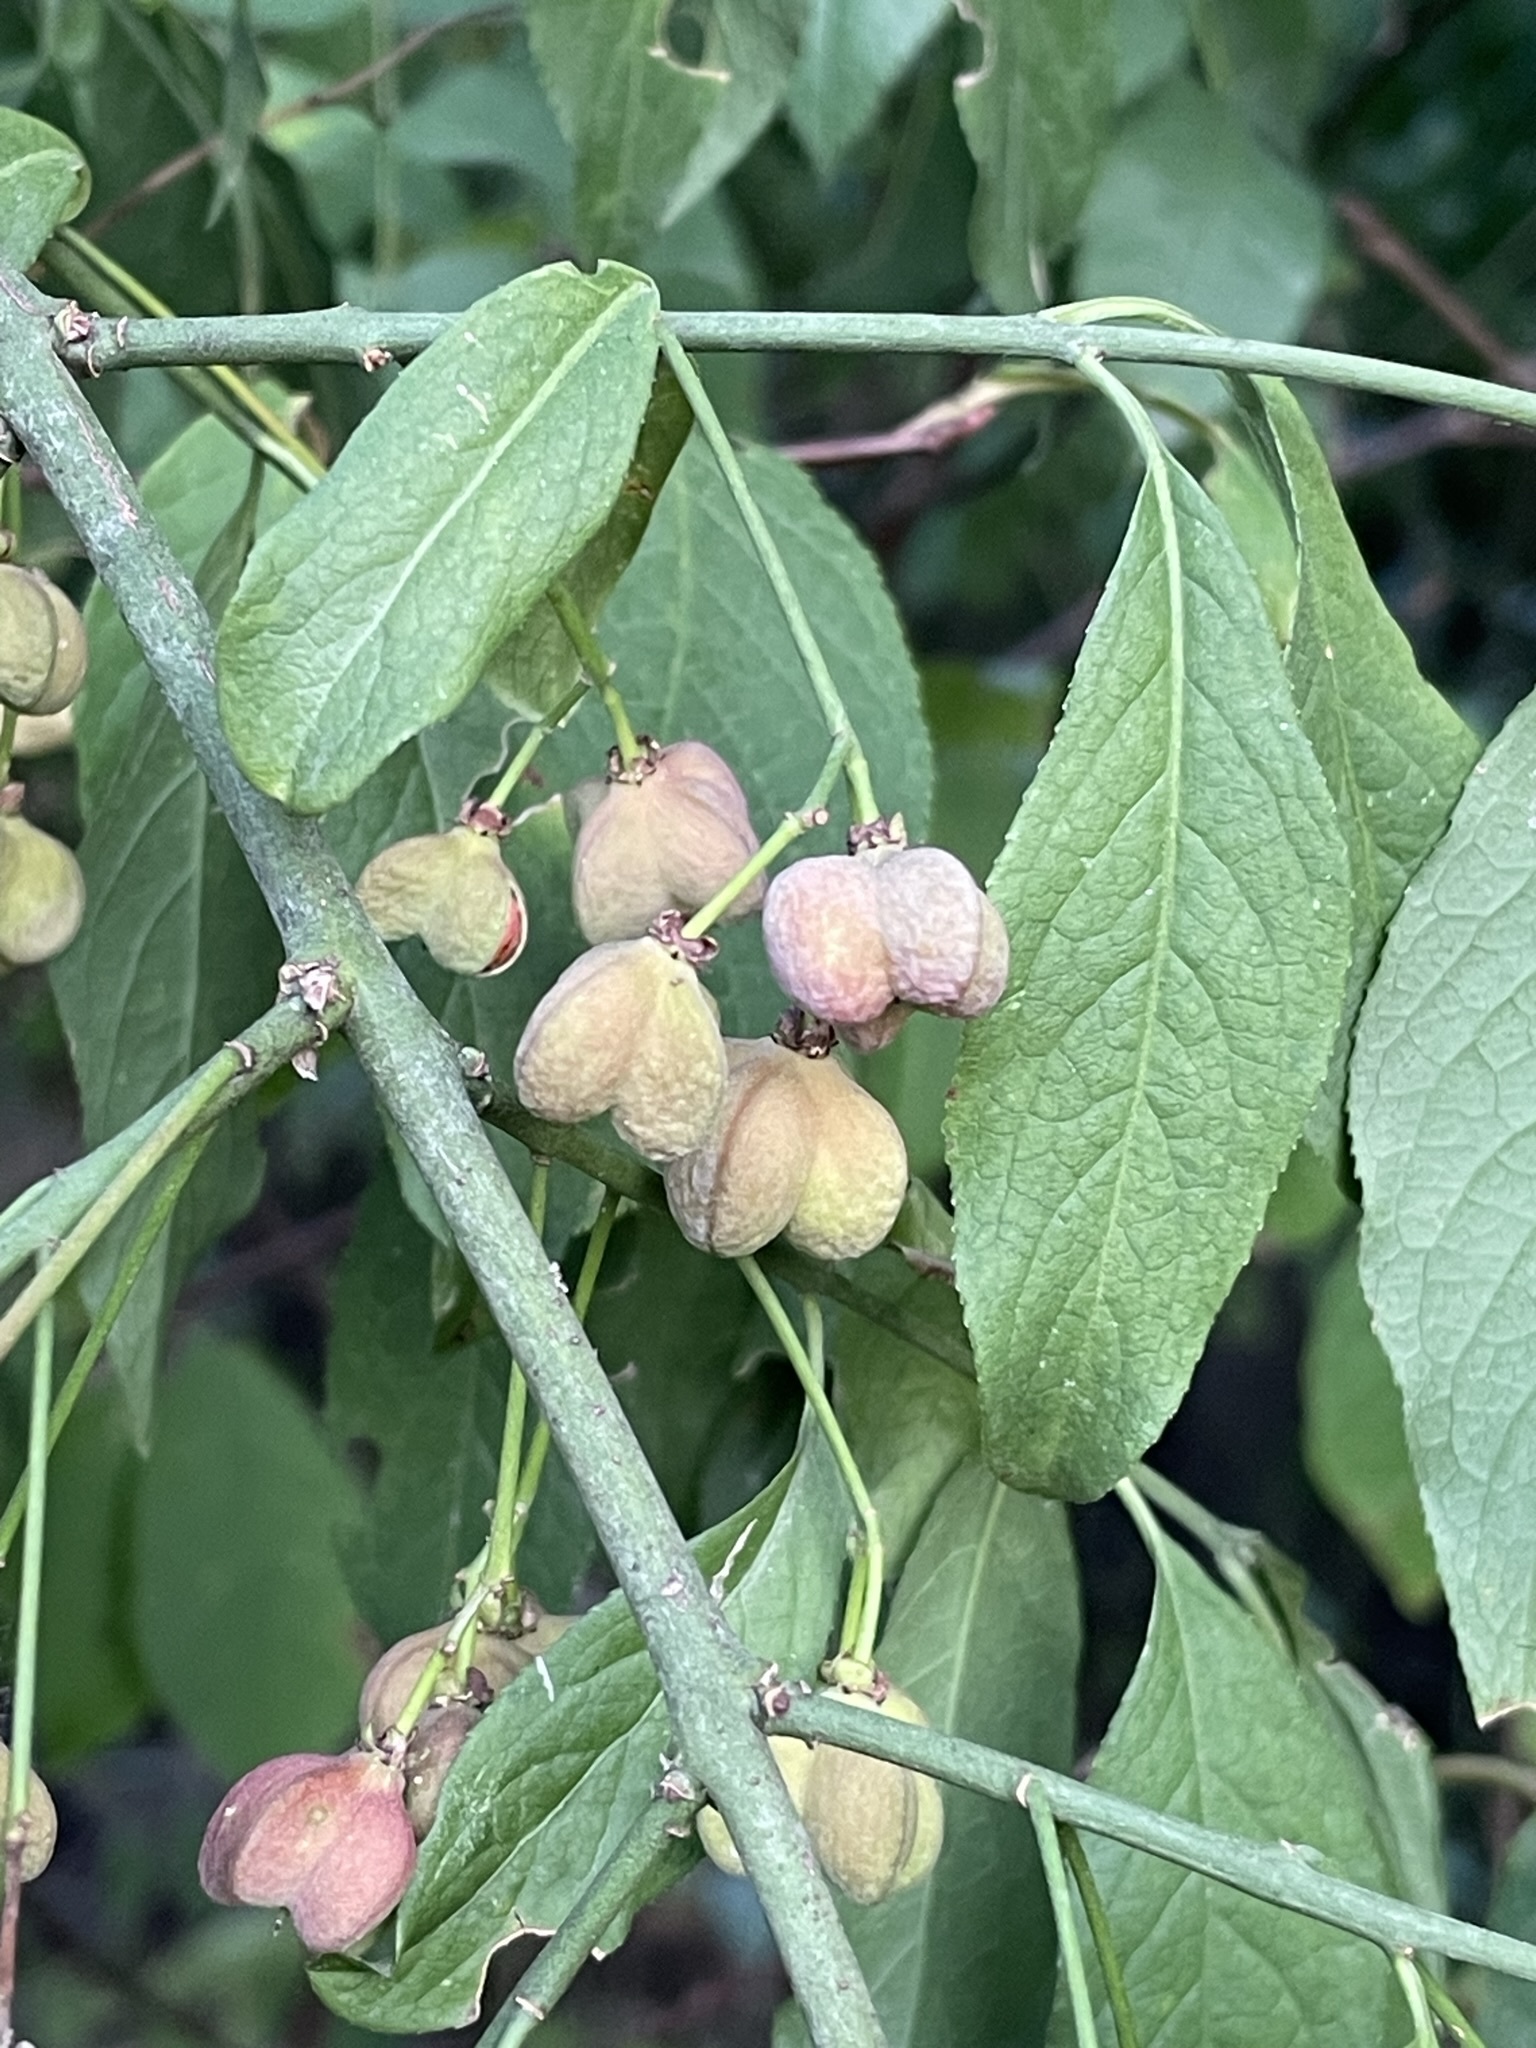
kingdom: Plantae
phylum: Tracheophyta
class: Magnoliopsida
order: Celastrales
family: Celastraceae
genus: Euonymus
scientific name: Euonymus europaeus
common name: Spindle
